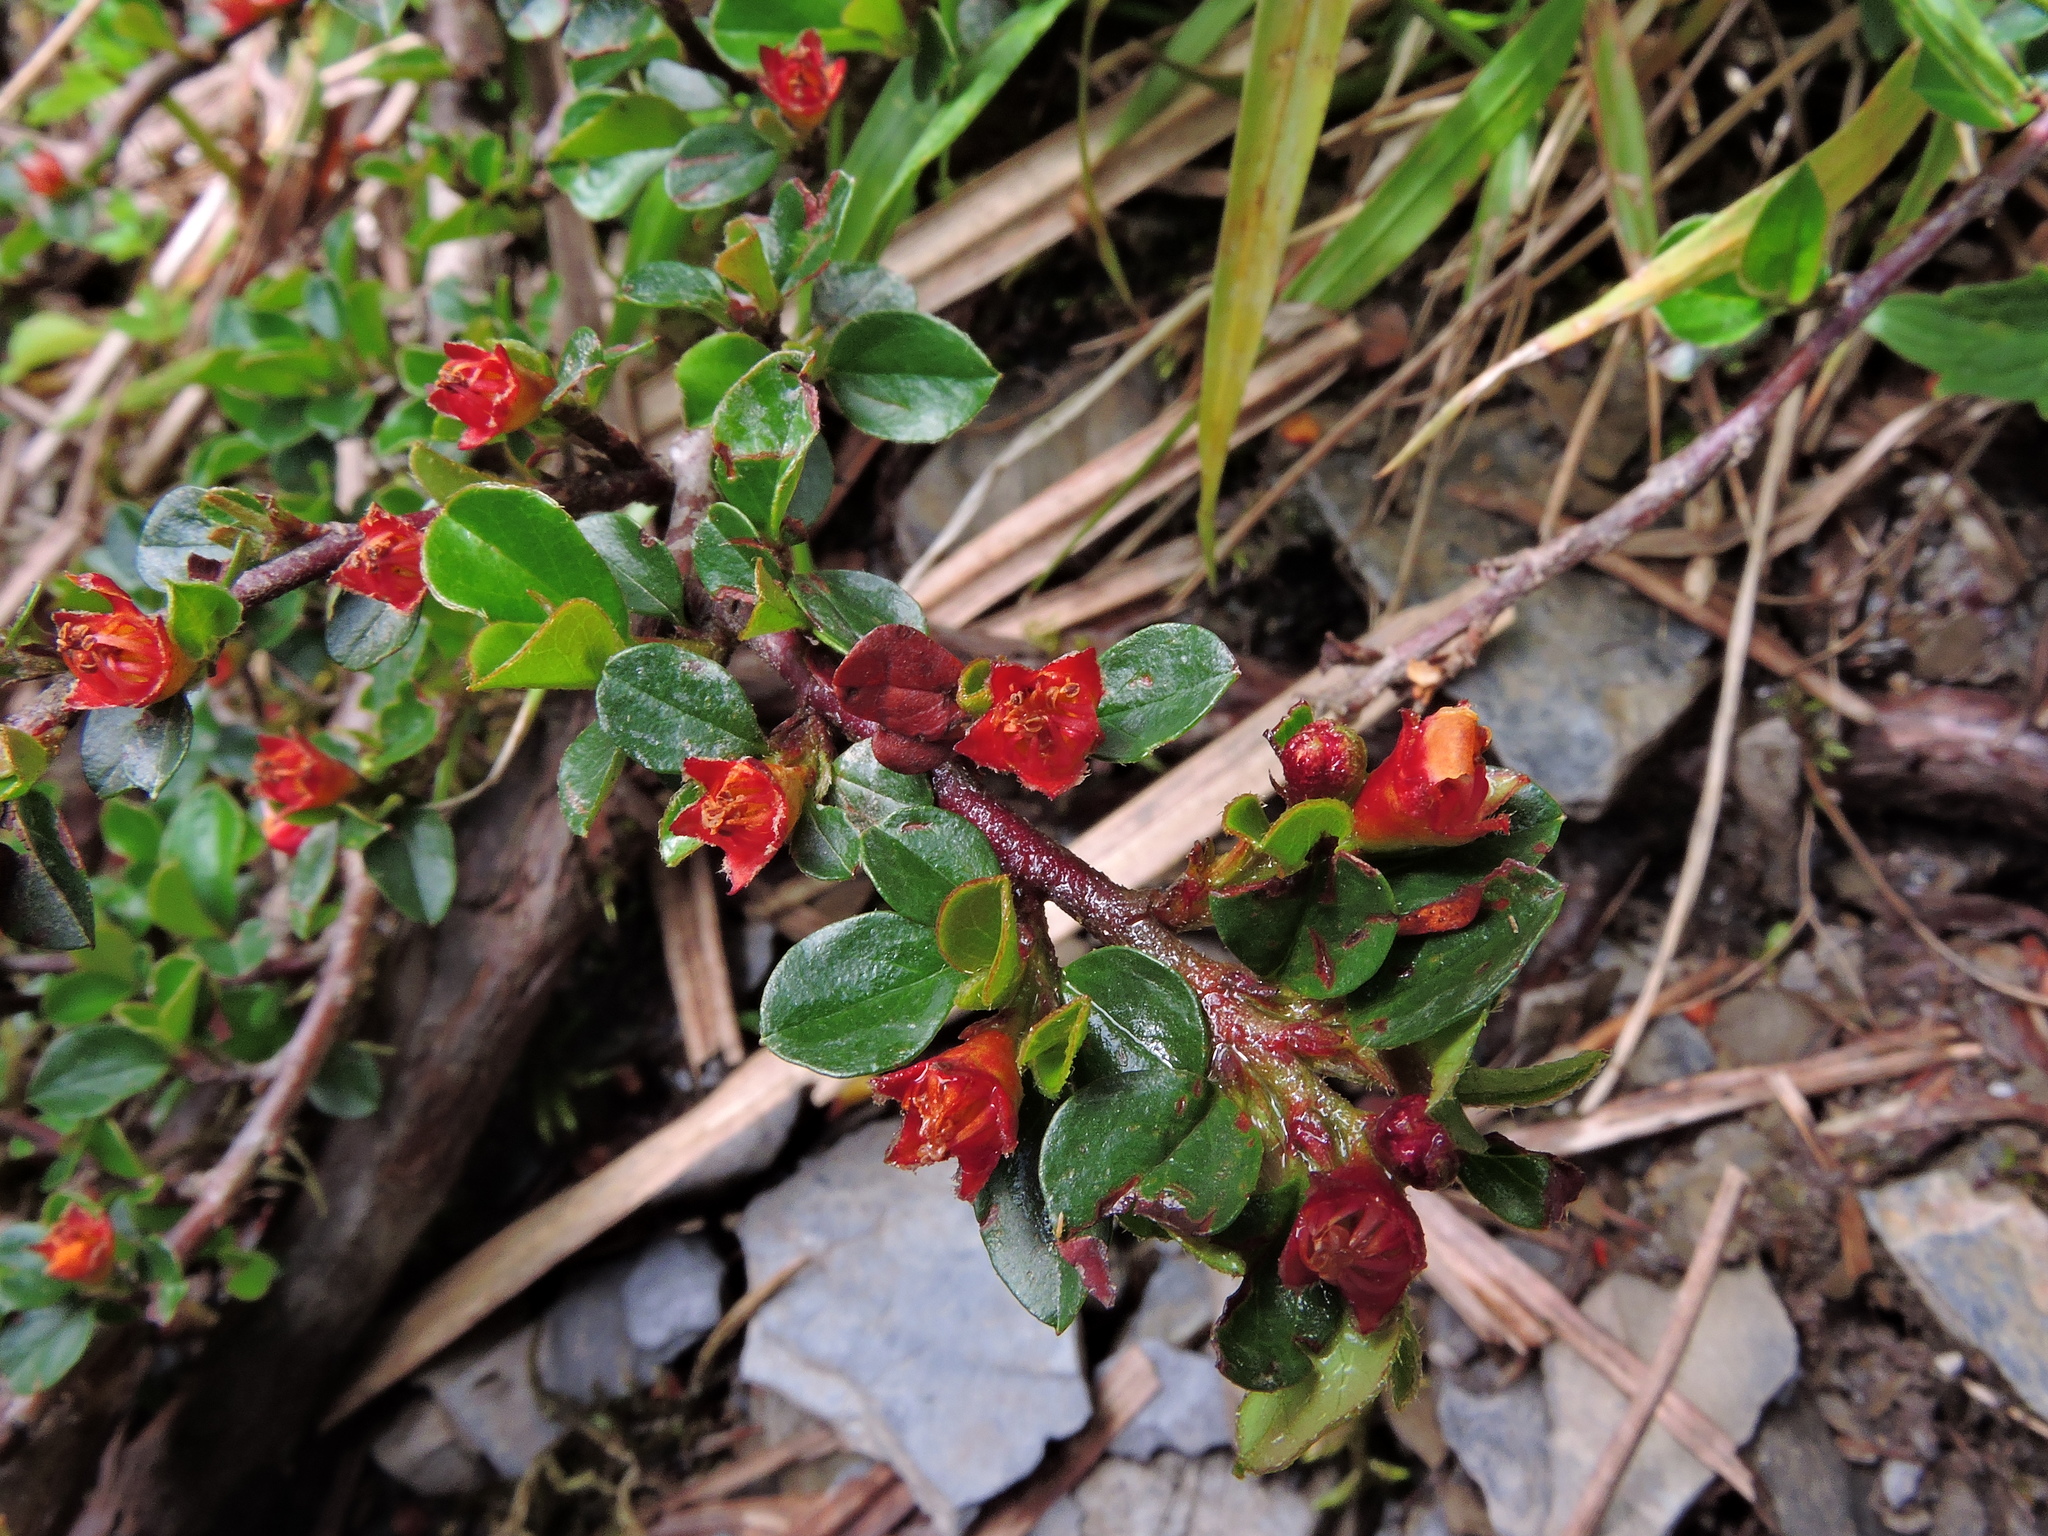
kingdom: Plantae
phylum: Tracheophyta
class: Magnoliopsida
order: Rosales
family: Rosaceae
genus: Cotoneaster
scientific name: Cotoneaster subadpressus
